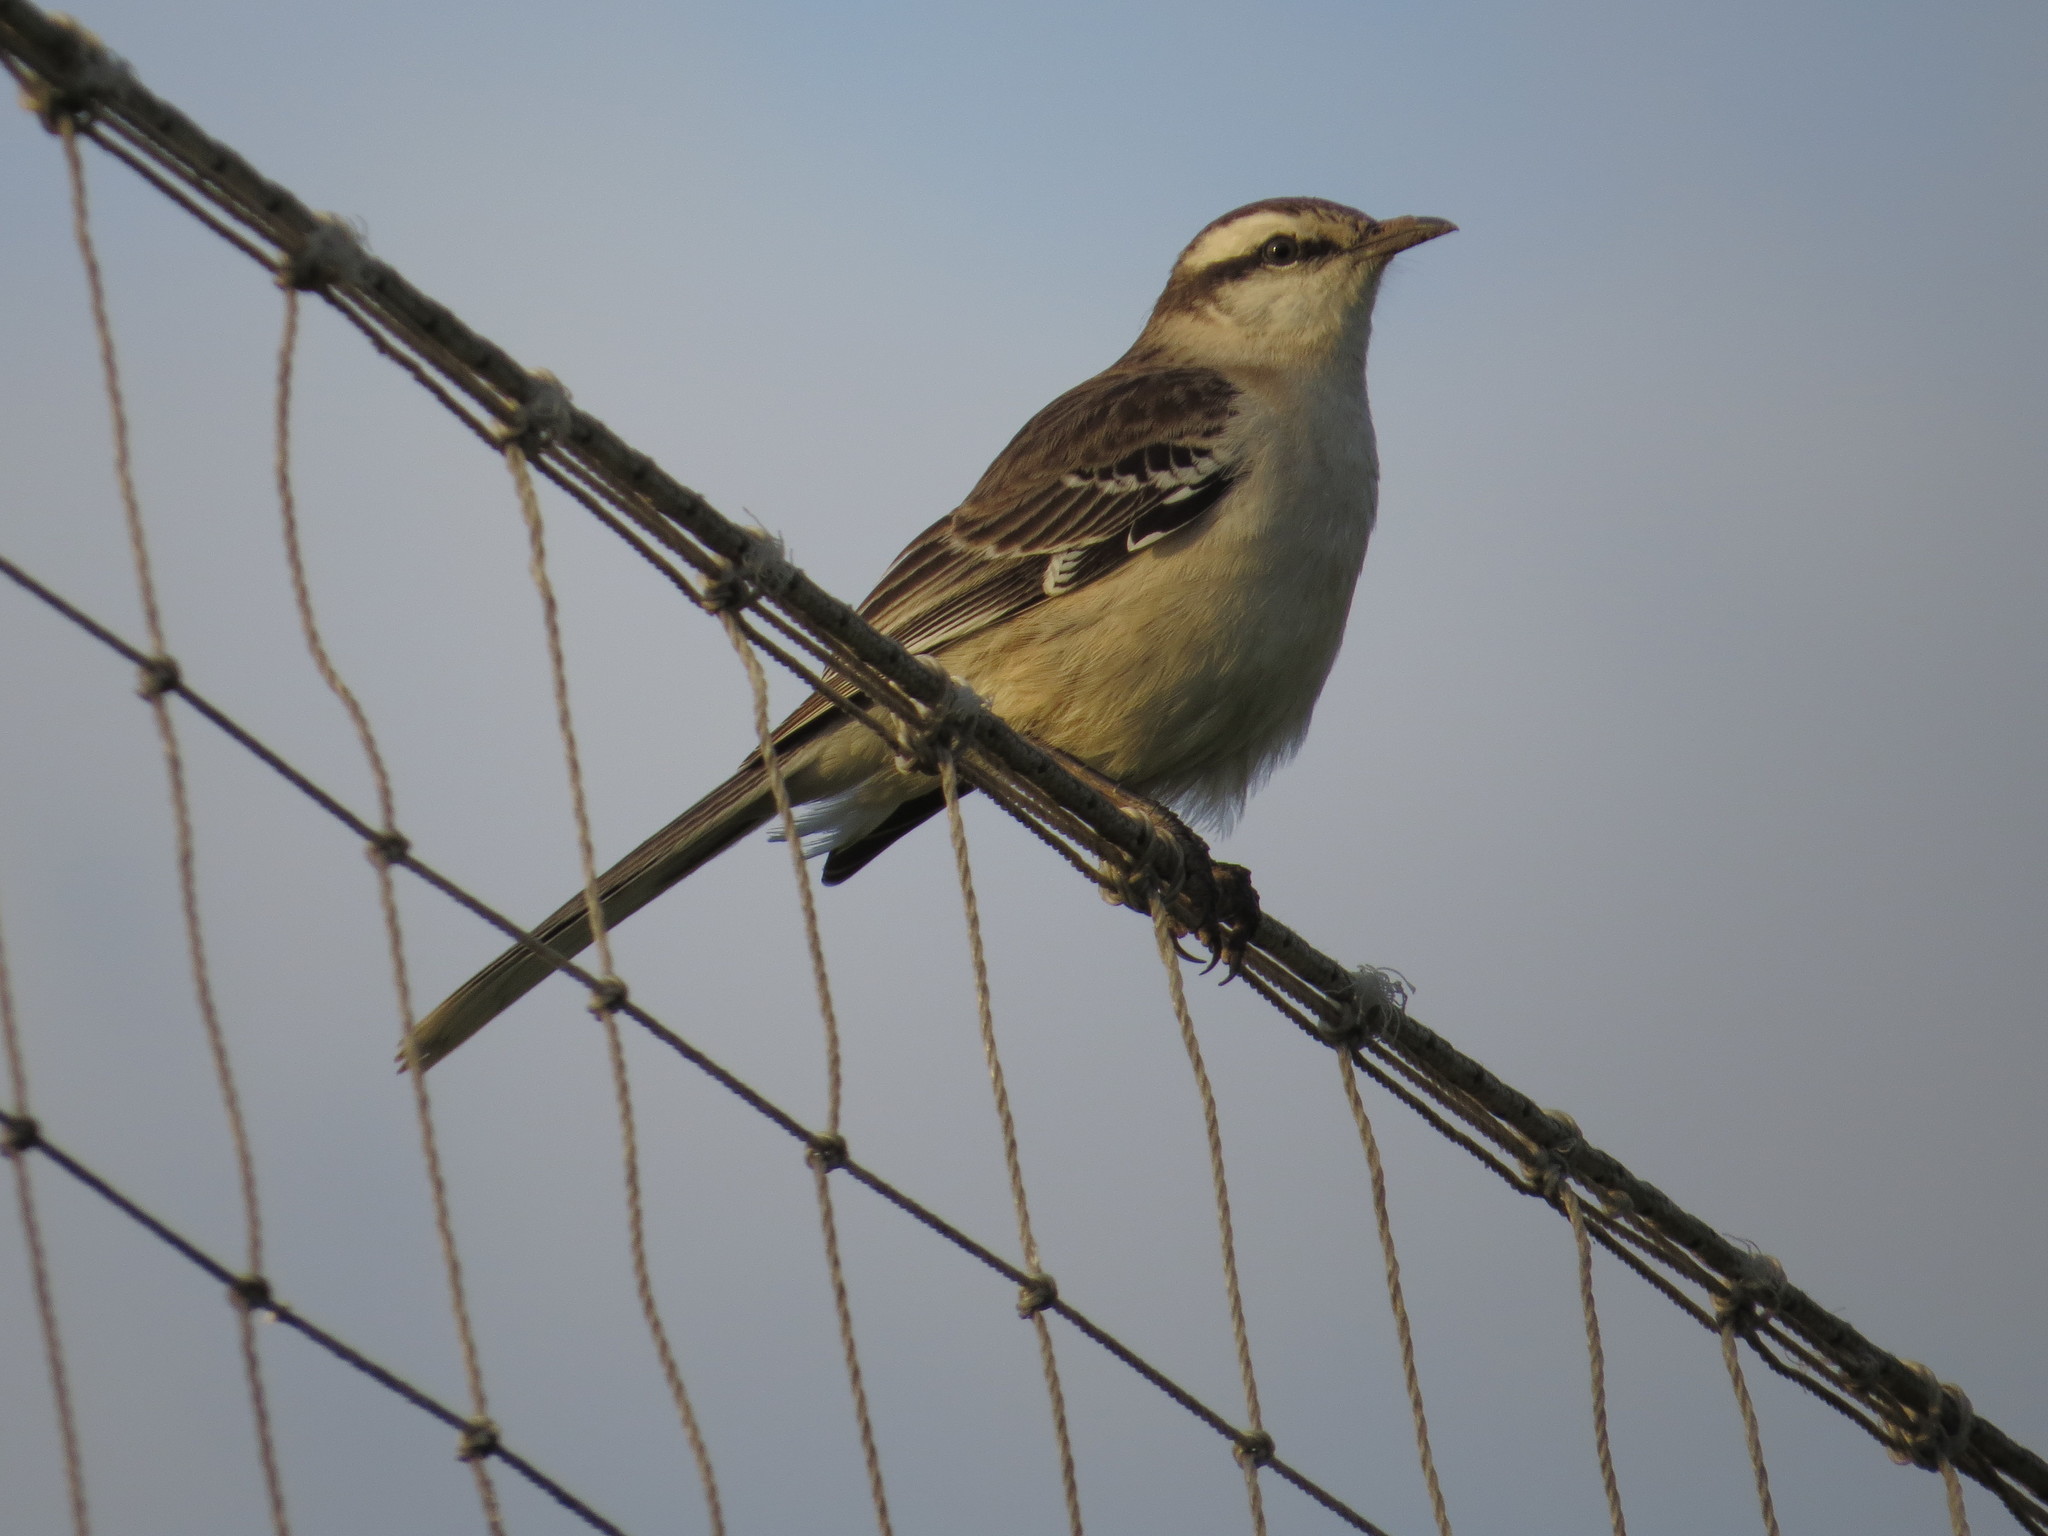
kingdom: Animalia
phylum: Chordata
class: Aves
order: Passeriformes
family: Mimidae
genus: Mimus
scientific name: Mimus saturninus
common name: Chalk-browed mockingbird
